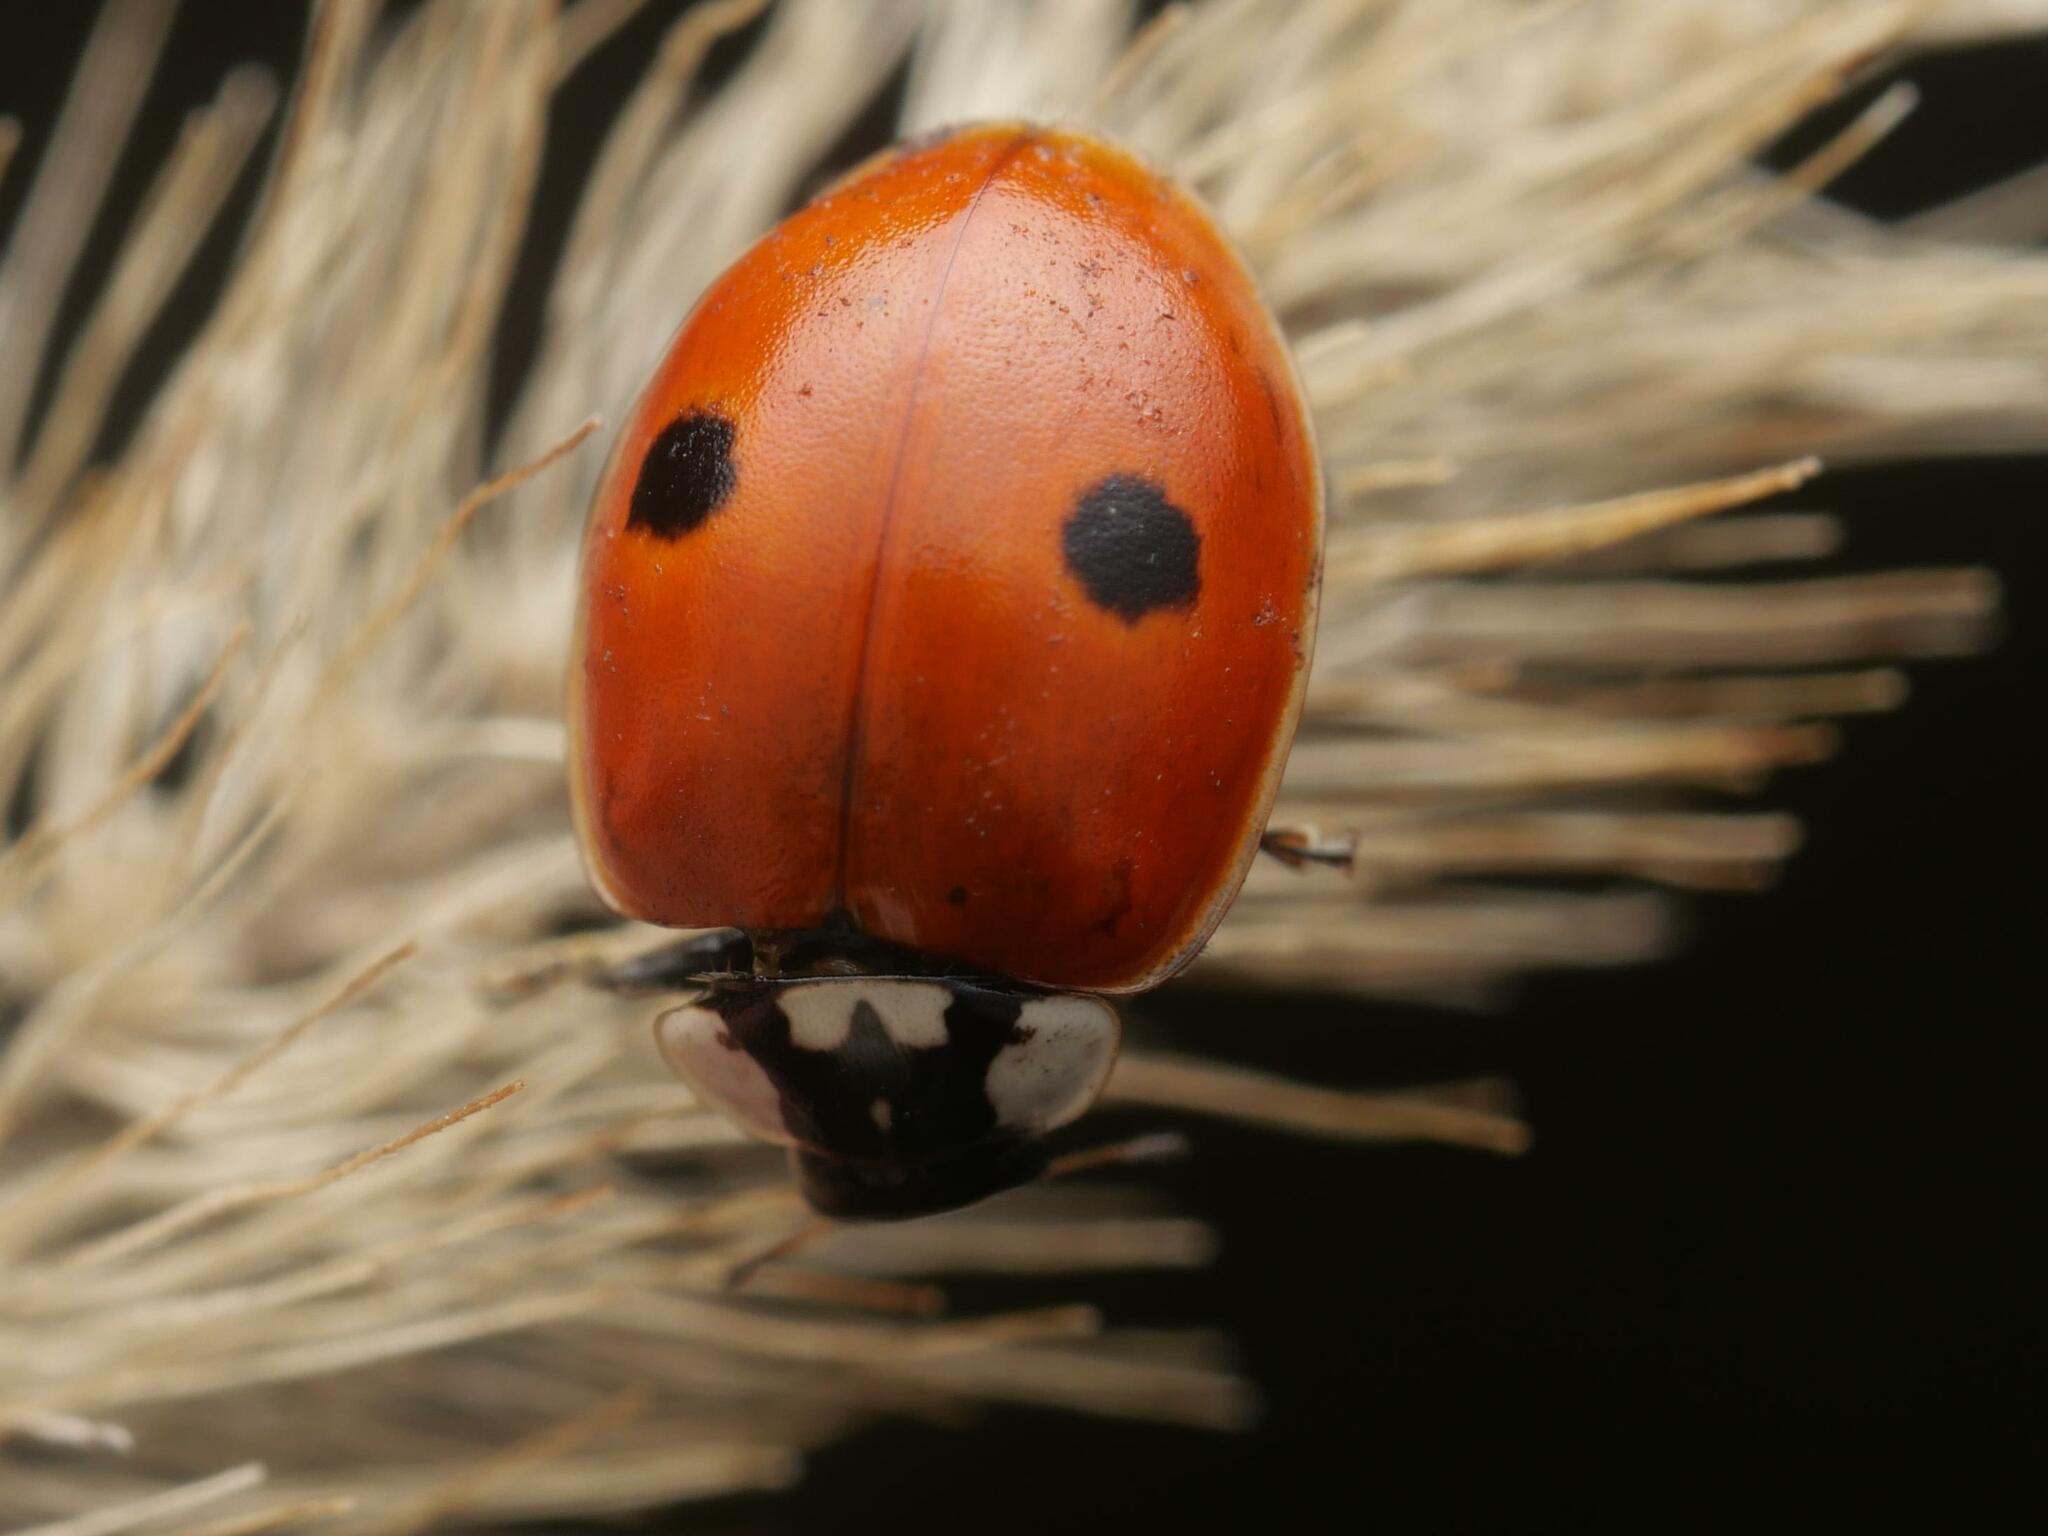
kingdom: Animalia
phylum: Arthropoda
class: Insecta
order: Coleoptera
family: Coccinellidae
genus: Adalia
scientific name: Adalia bipunctata
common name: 2-spot ladybird
